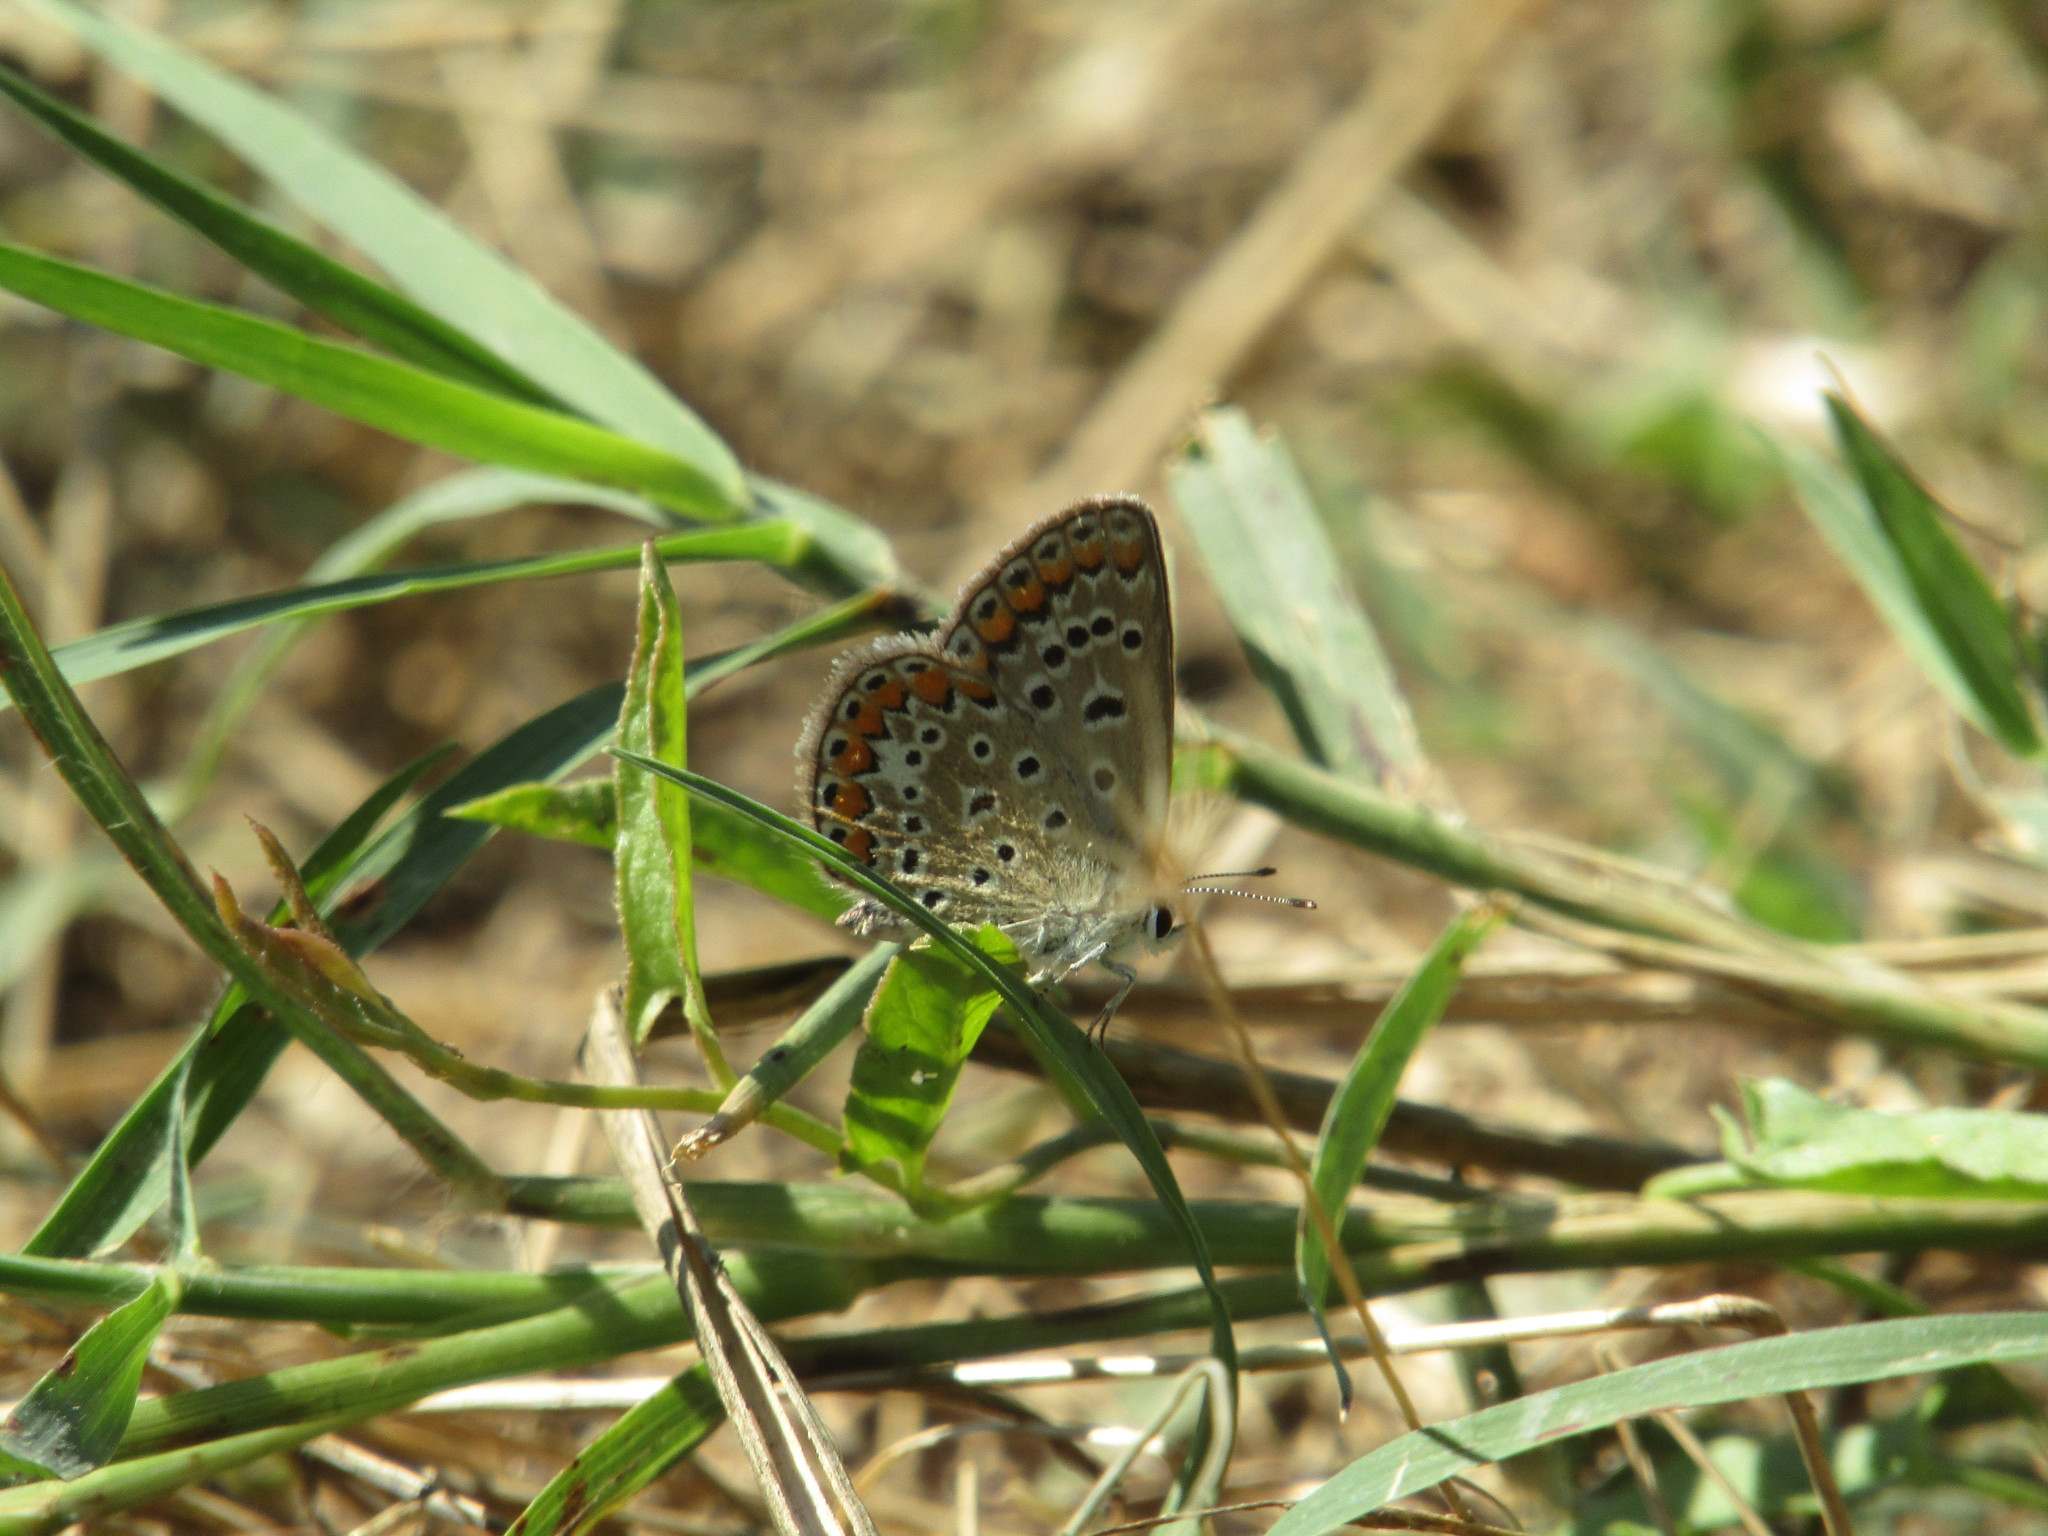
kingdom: Animalia
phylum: Arthropoda
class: Insecta
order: Lepidoptera
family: Lycaenidae
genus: Polyommatus
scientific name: Polyommatus icarus
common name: Common blue
